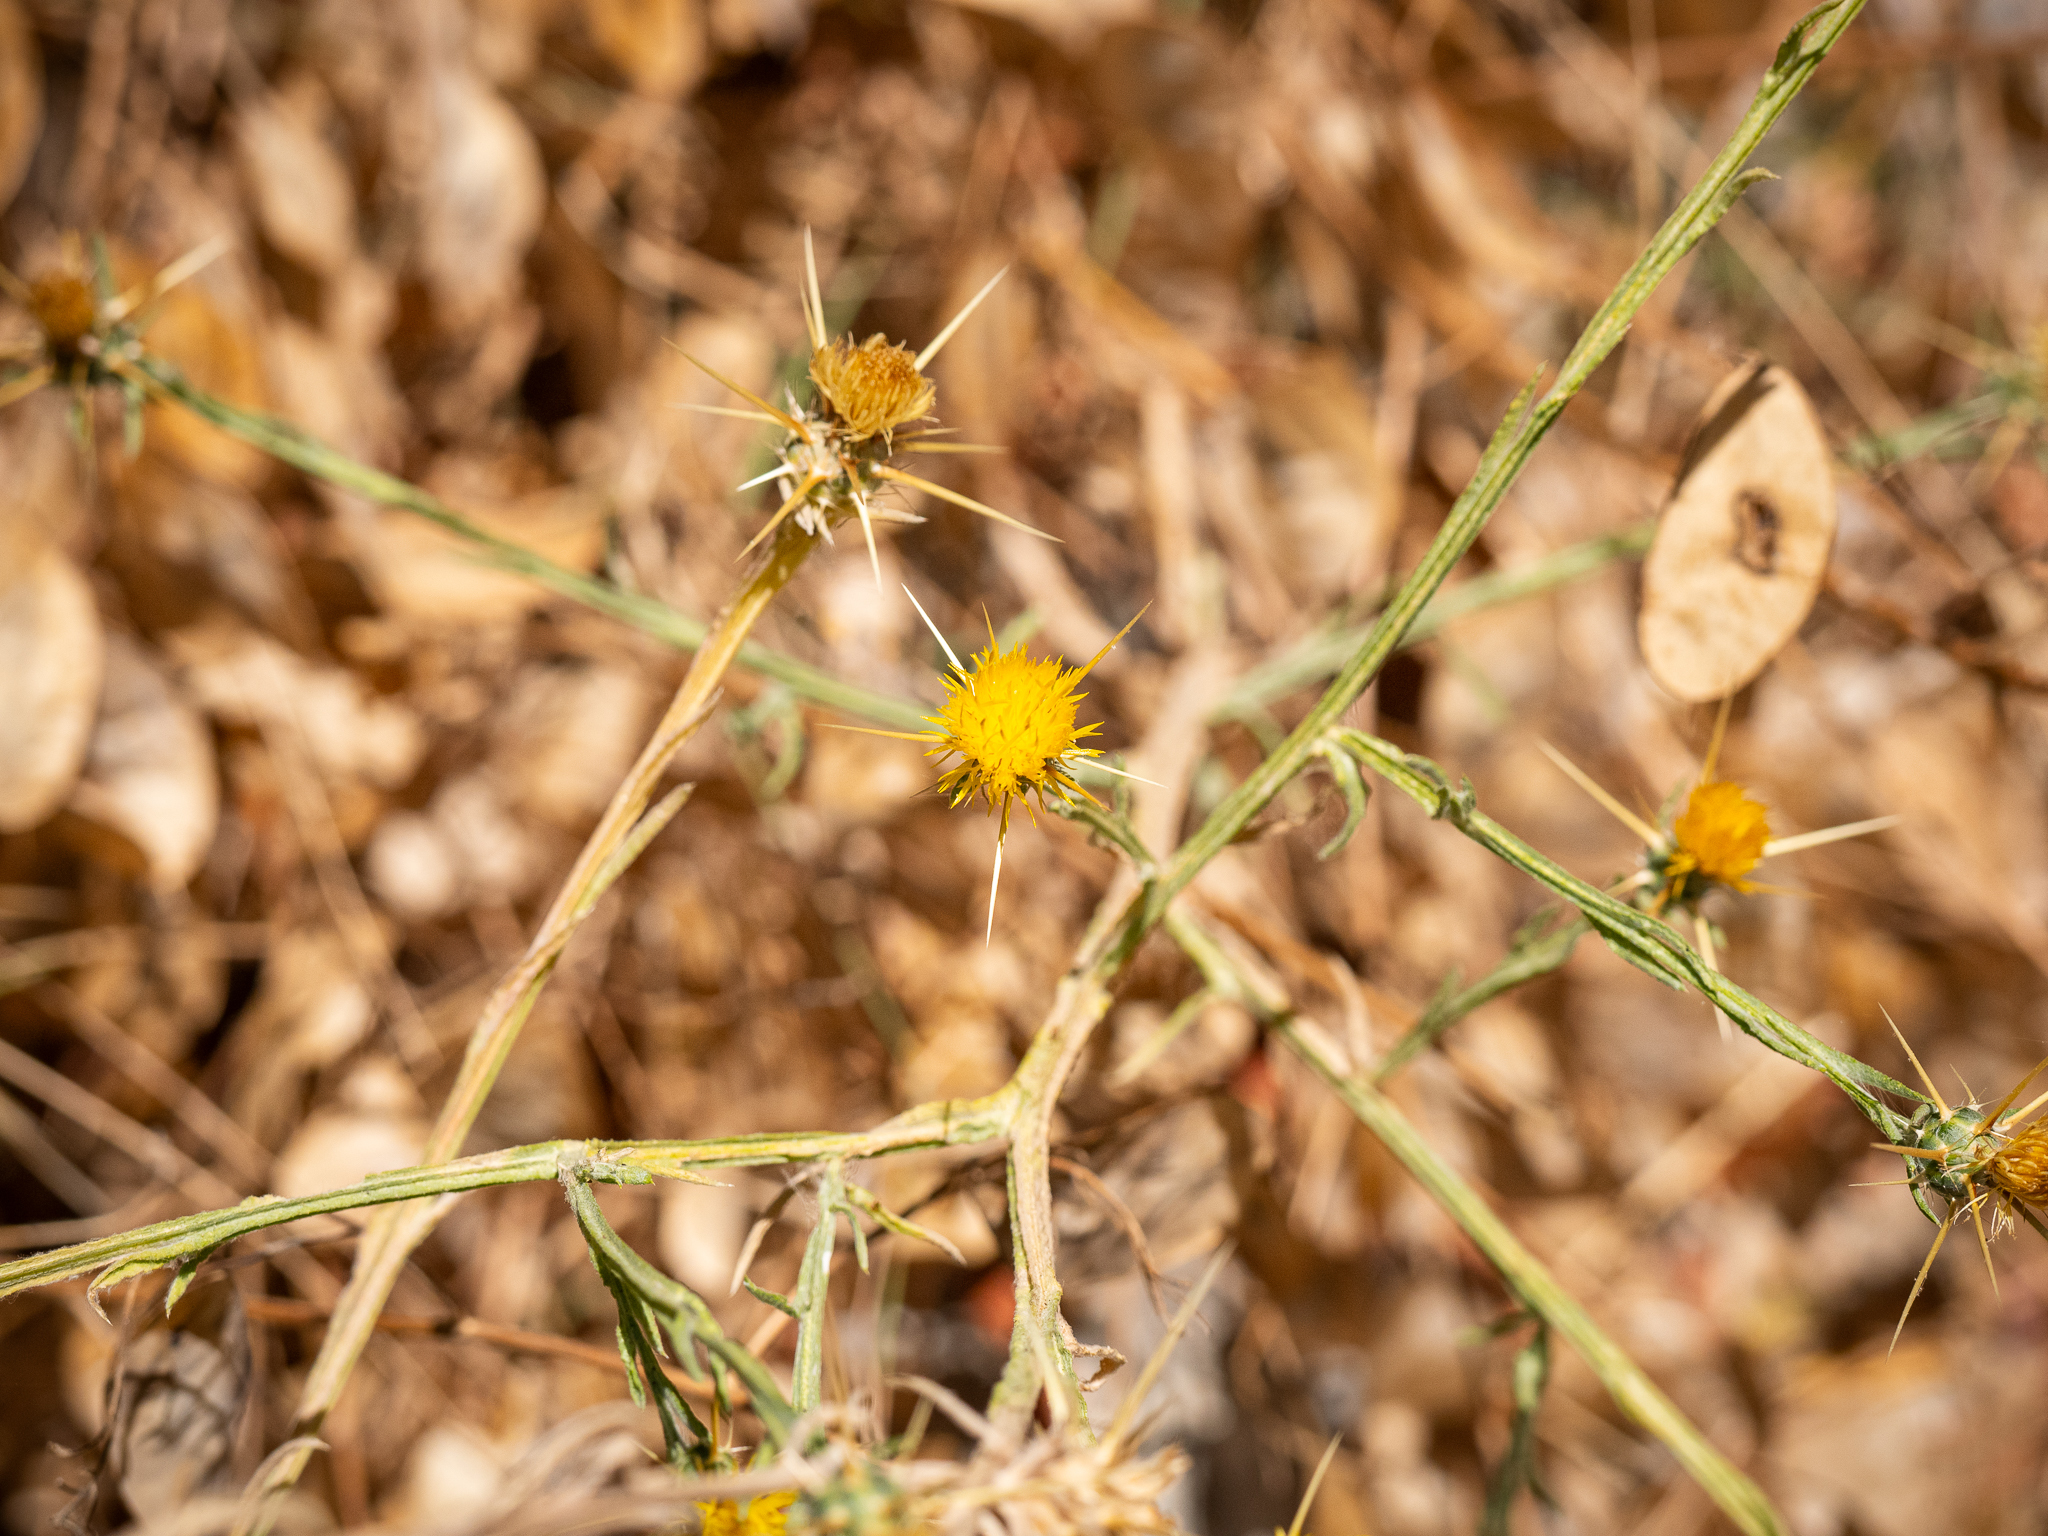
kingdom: Plantae
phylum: Tracheophyta
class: Magnoliopsida
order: Asterales
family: Asteraceae
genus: Centaurea
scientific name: Centaurea solstitialis
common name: Yellow star-thistle
